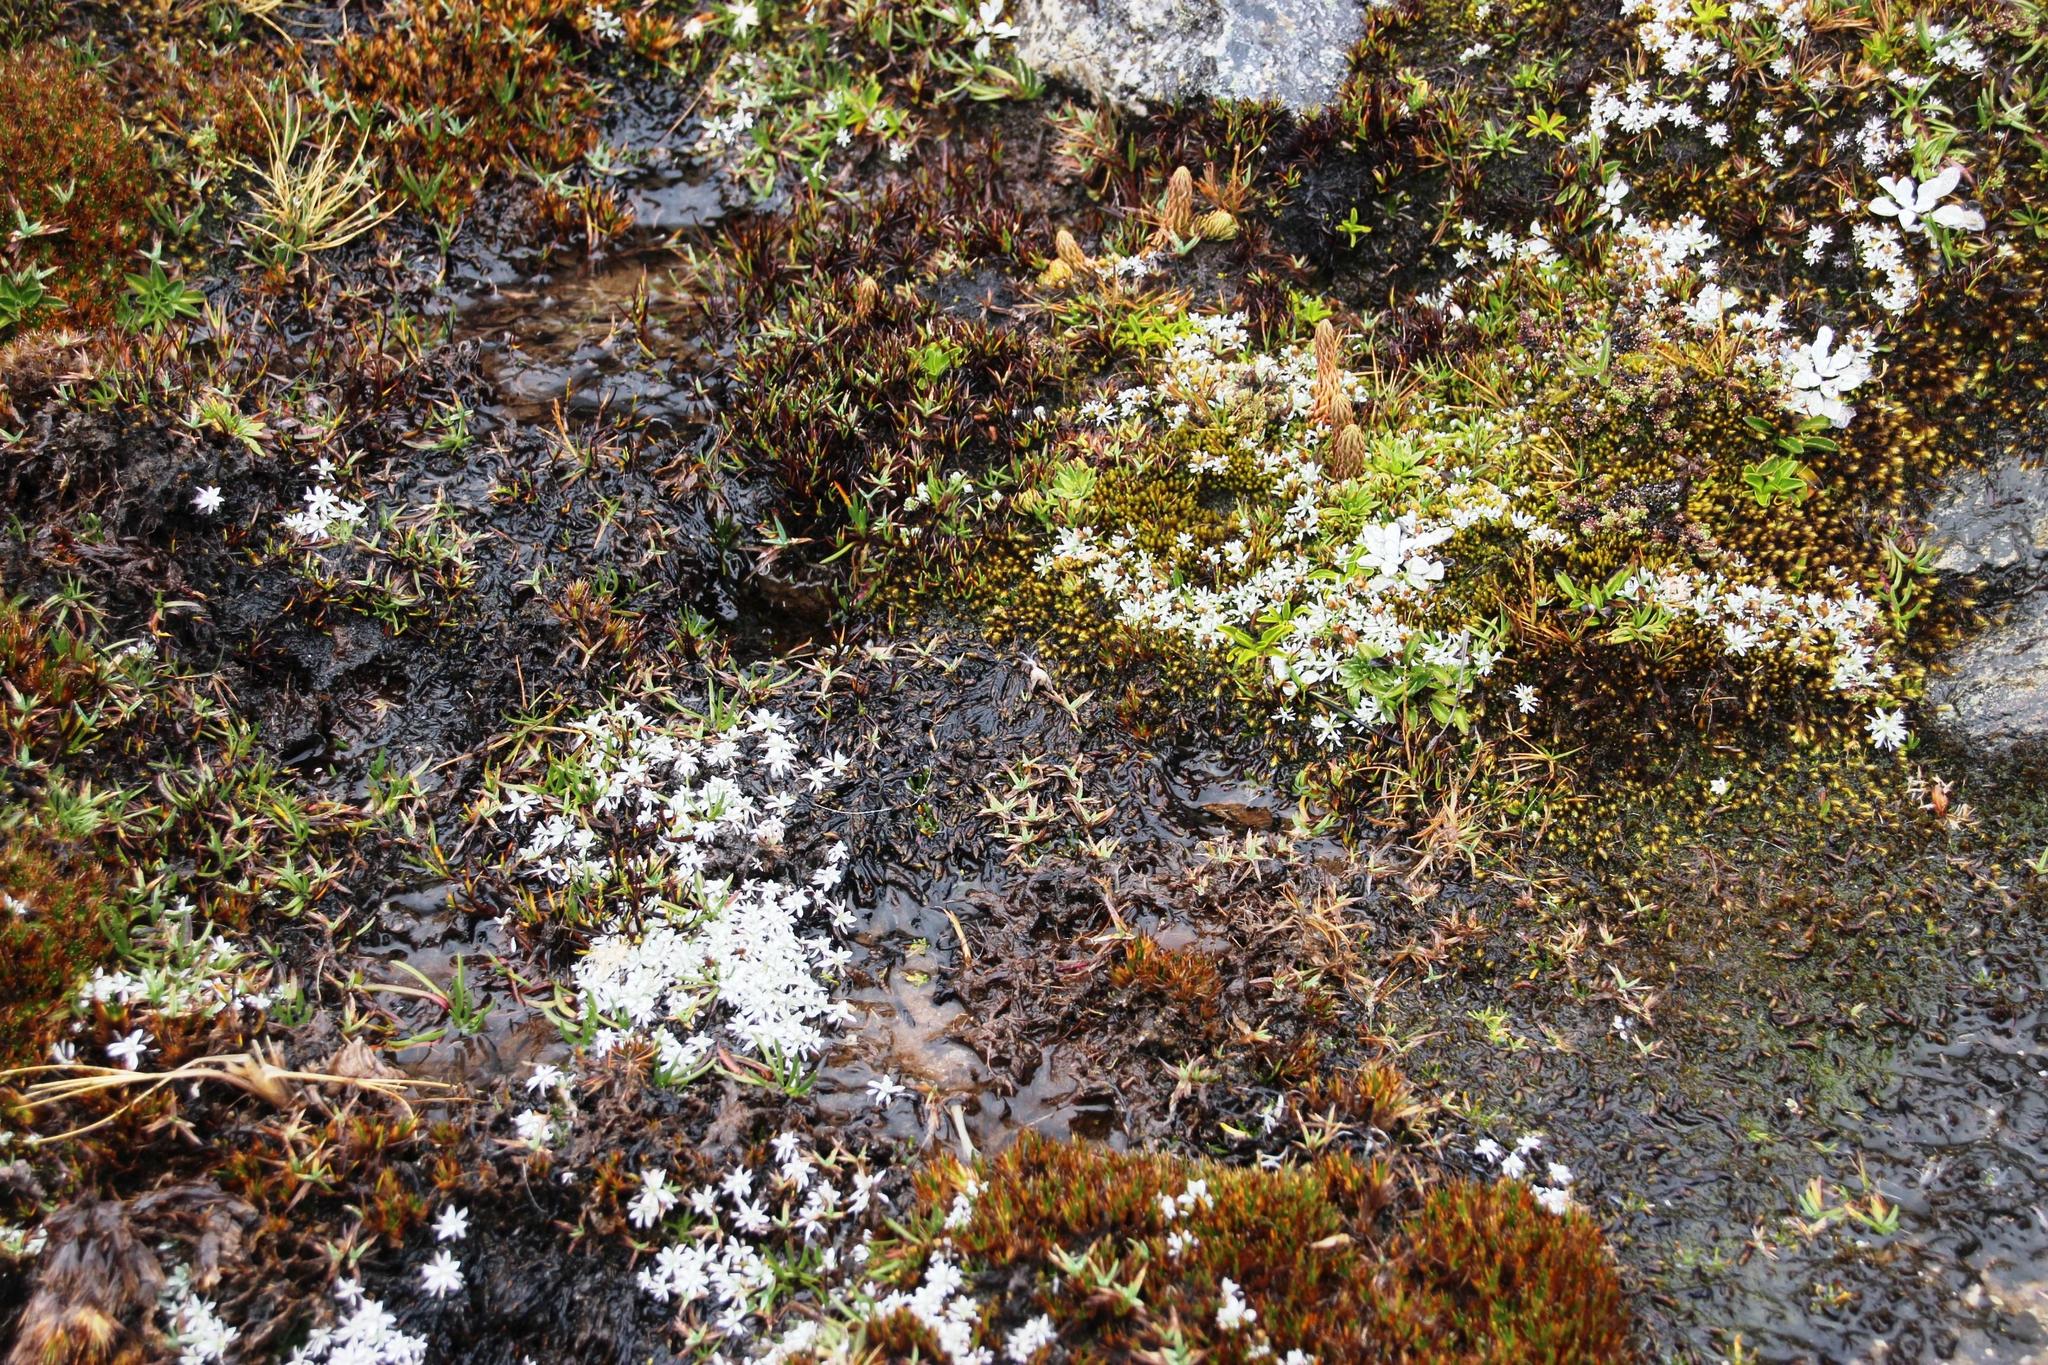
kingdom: Plantae
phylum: Tracheophyta
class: Magnoliopsida
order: Asterales
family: Asteraceae
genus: Mniodes
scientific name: Mniodes kunthiana
